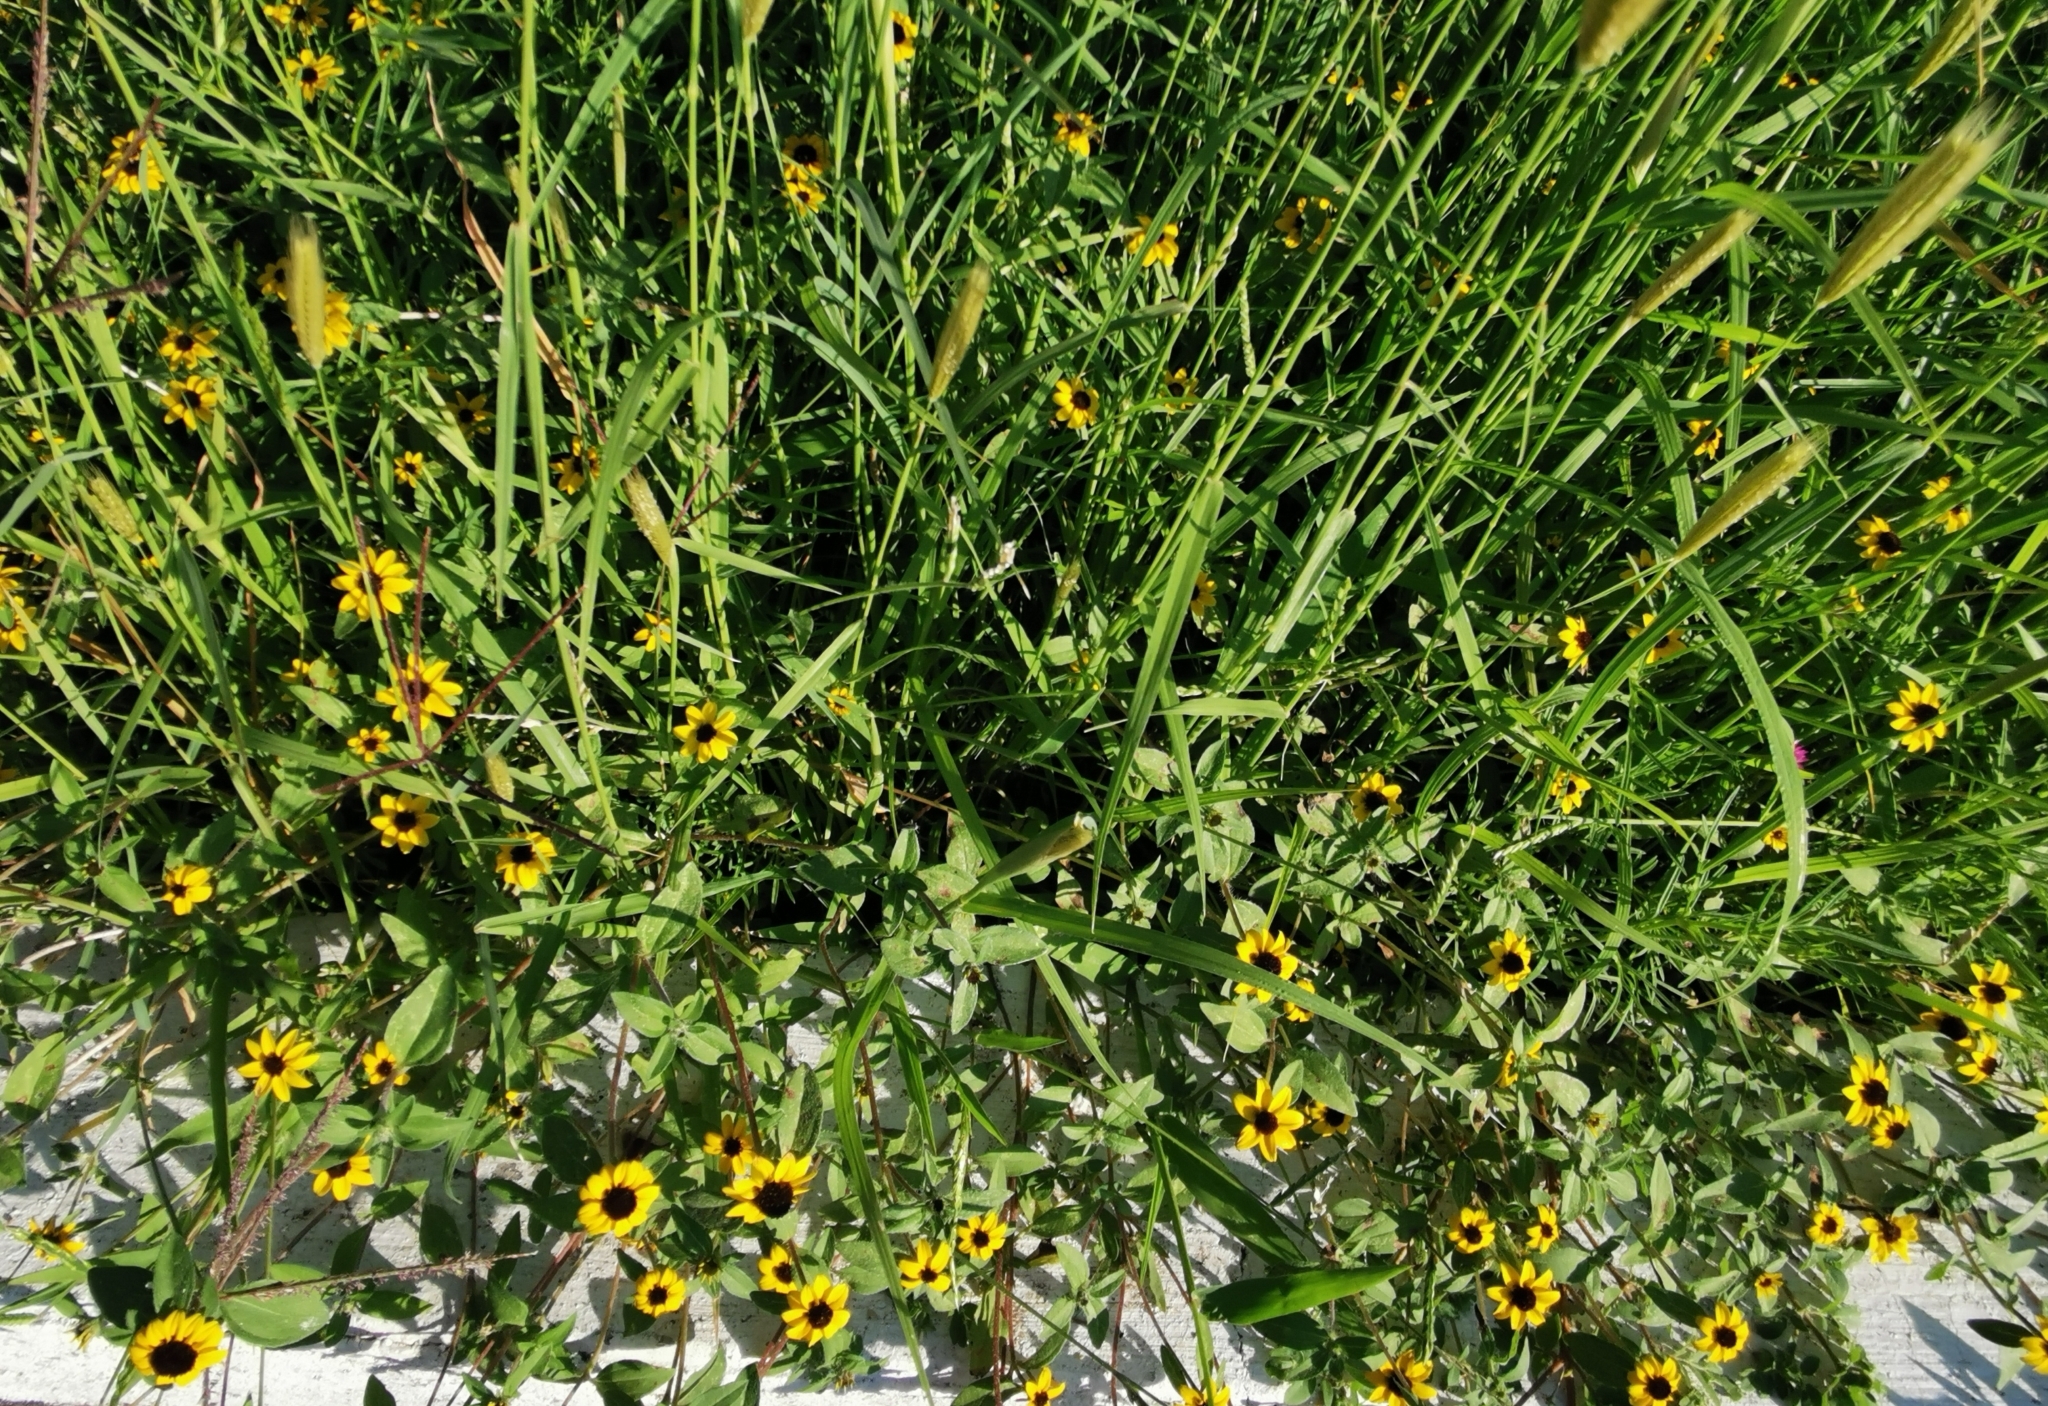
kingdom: Plantae
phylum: Tracheophyta
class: Magnoliopsida
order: Asterales
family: Asteraceae
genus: Sanvitalia
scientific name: Sanvitalia procumbens
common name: Mexican creeping zinnia
